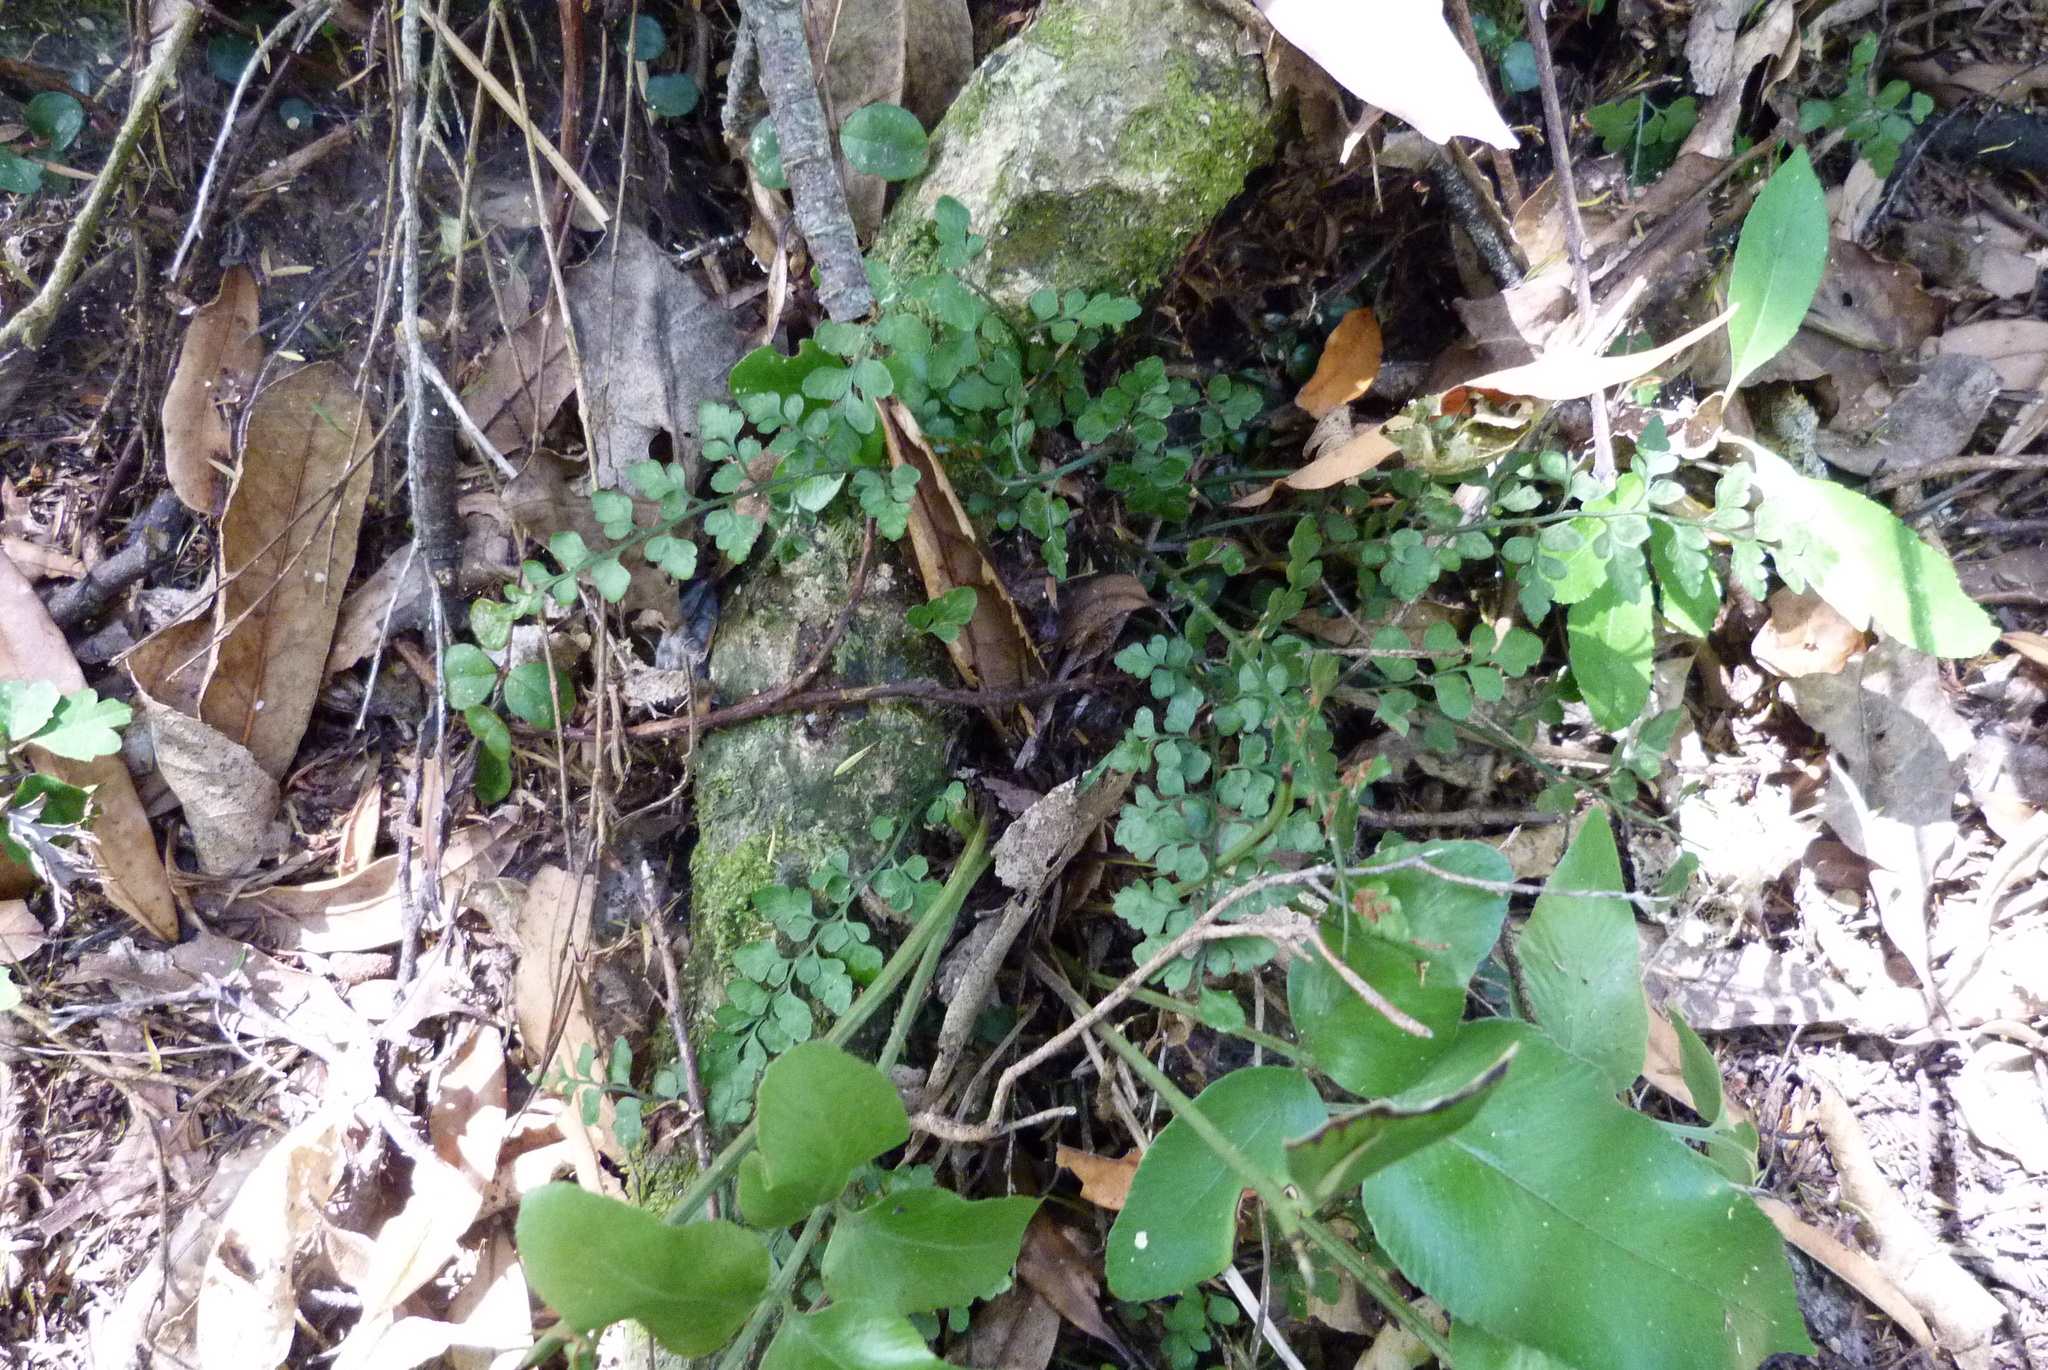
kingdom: Plantae
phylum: Tracheophyta
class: Polypodiopsida
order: Polypodiales
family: Aspleniaceae
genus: Asplenium
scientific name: Asplenium hookerianum
